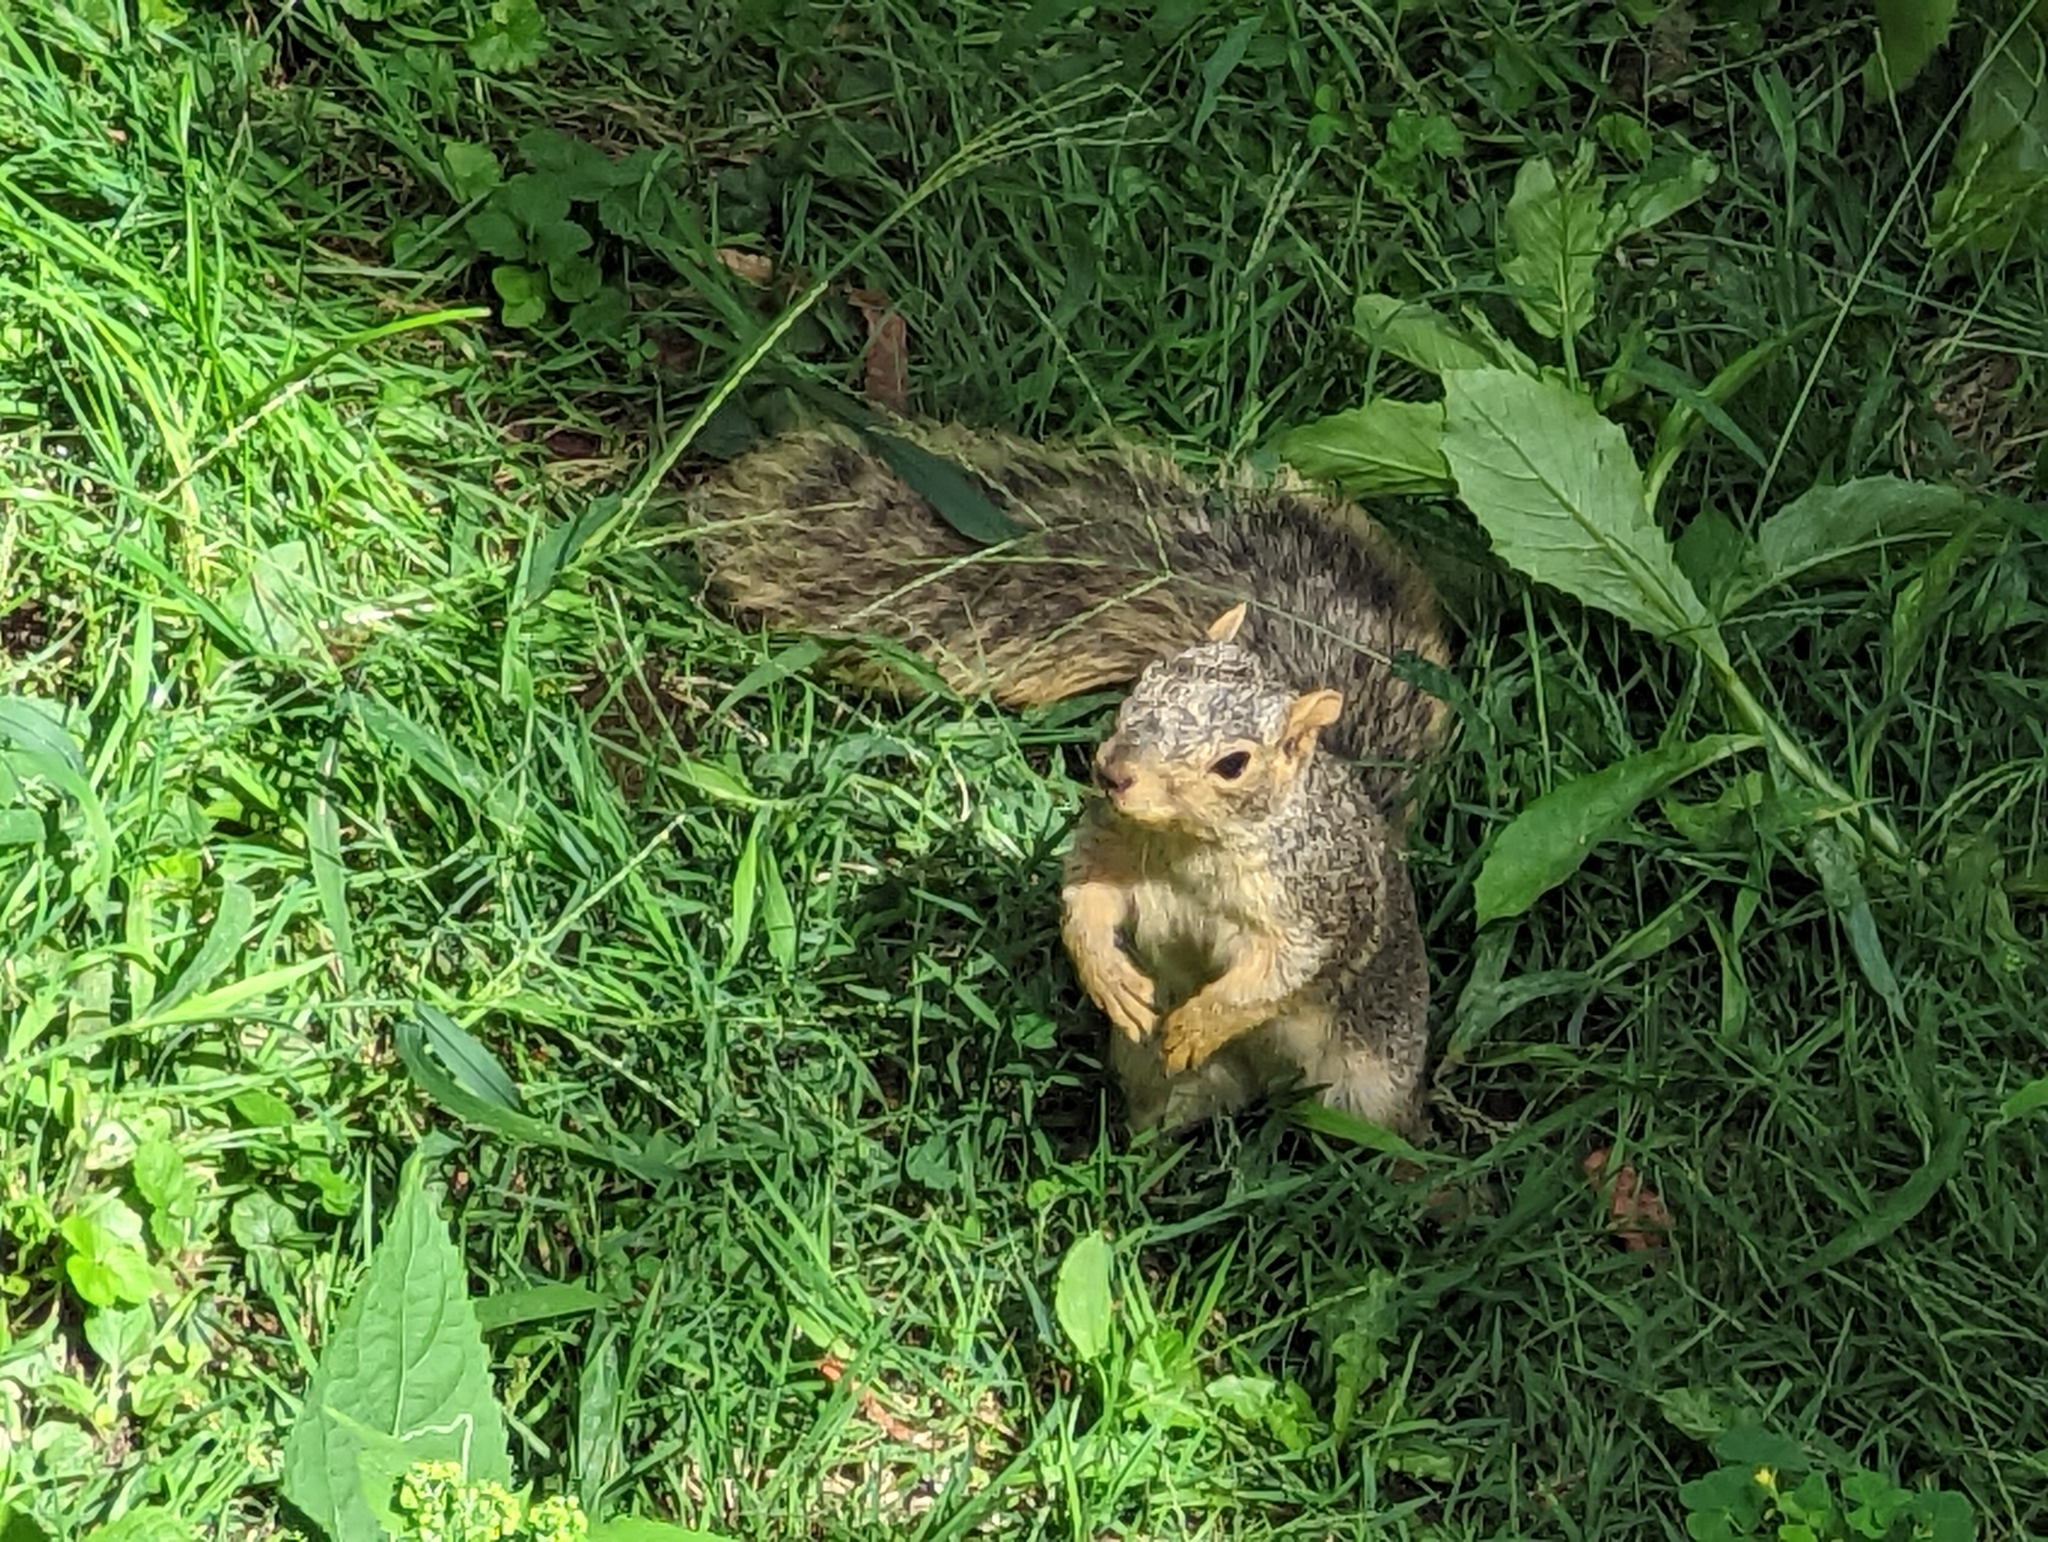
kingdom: Animalia
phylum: Chordata
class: Mammalia
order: Rodentia
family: Sciuridae
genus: Sciurus
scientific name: Sciurus niger
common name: Fox squirrel
